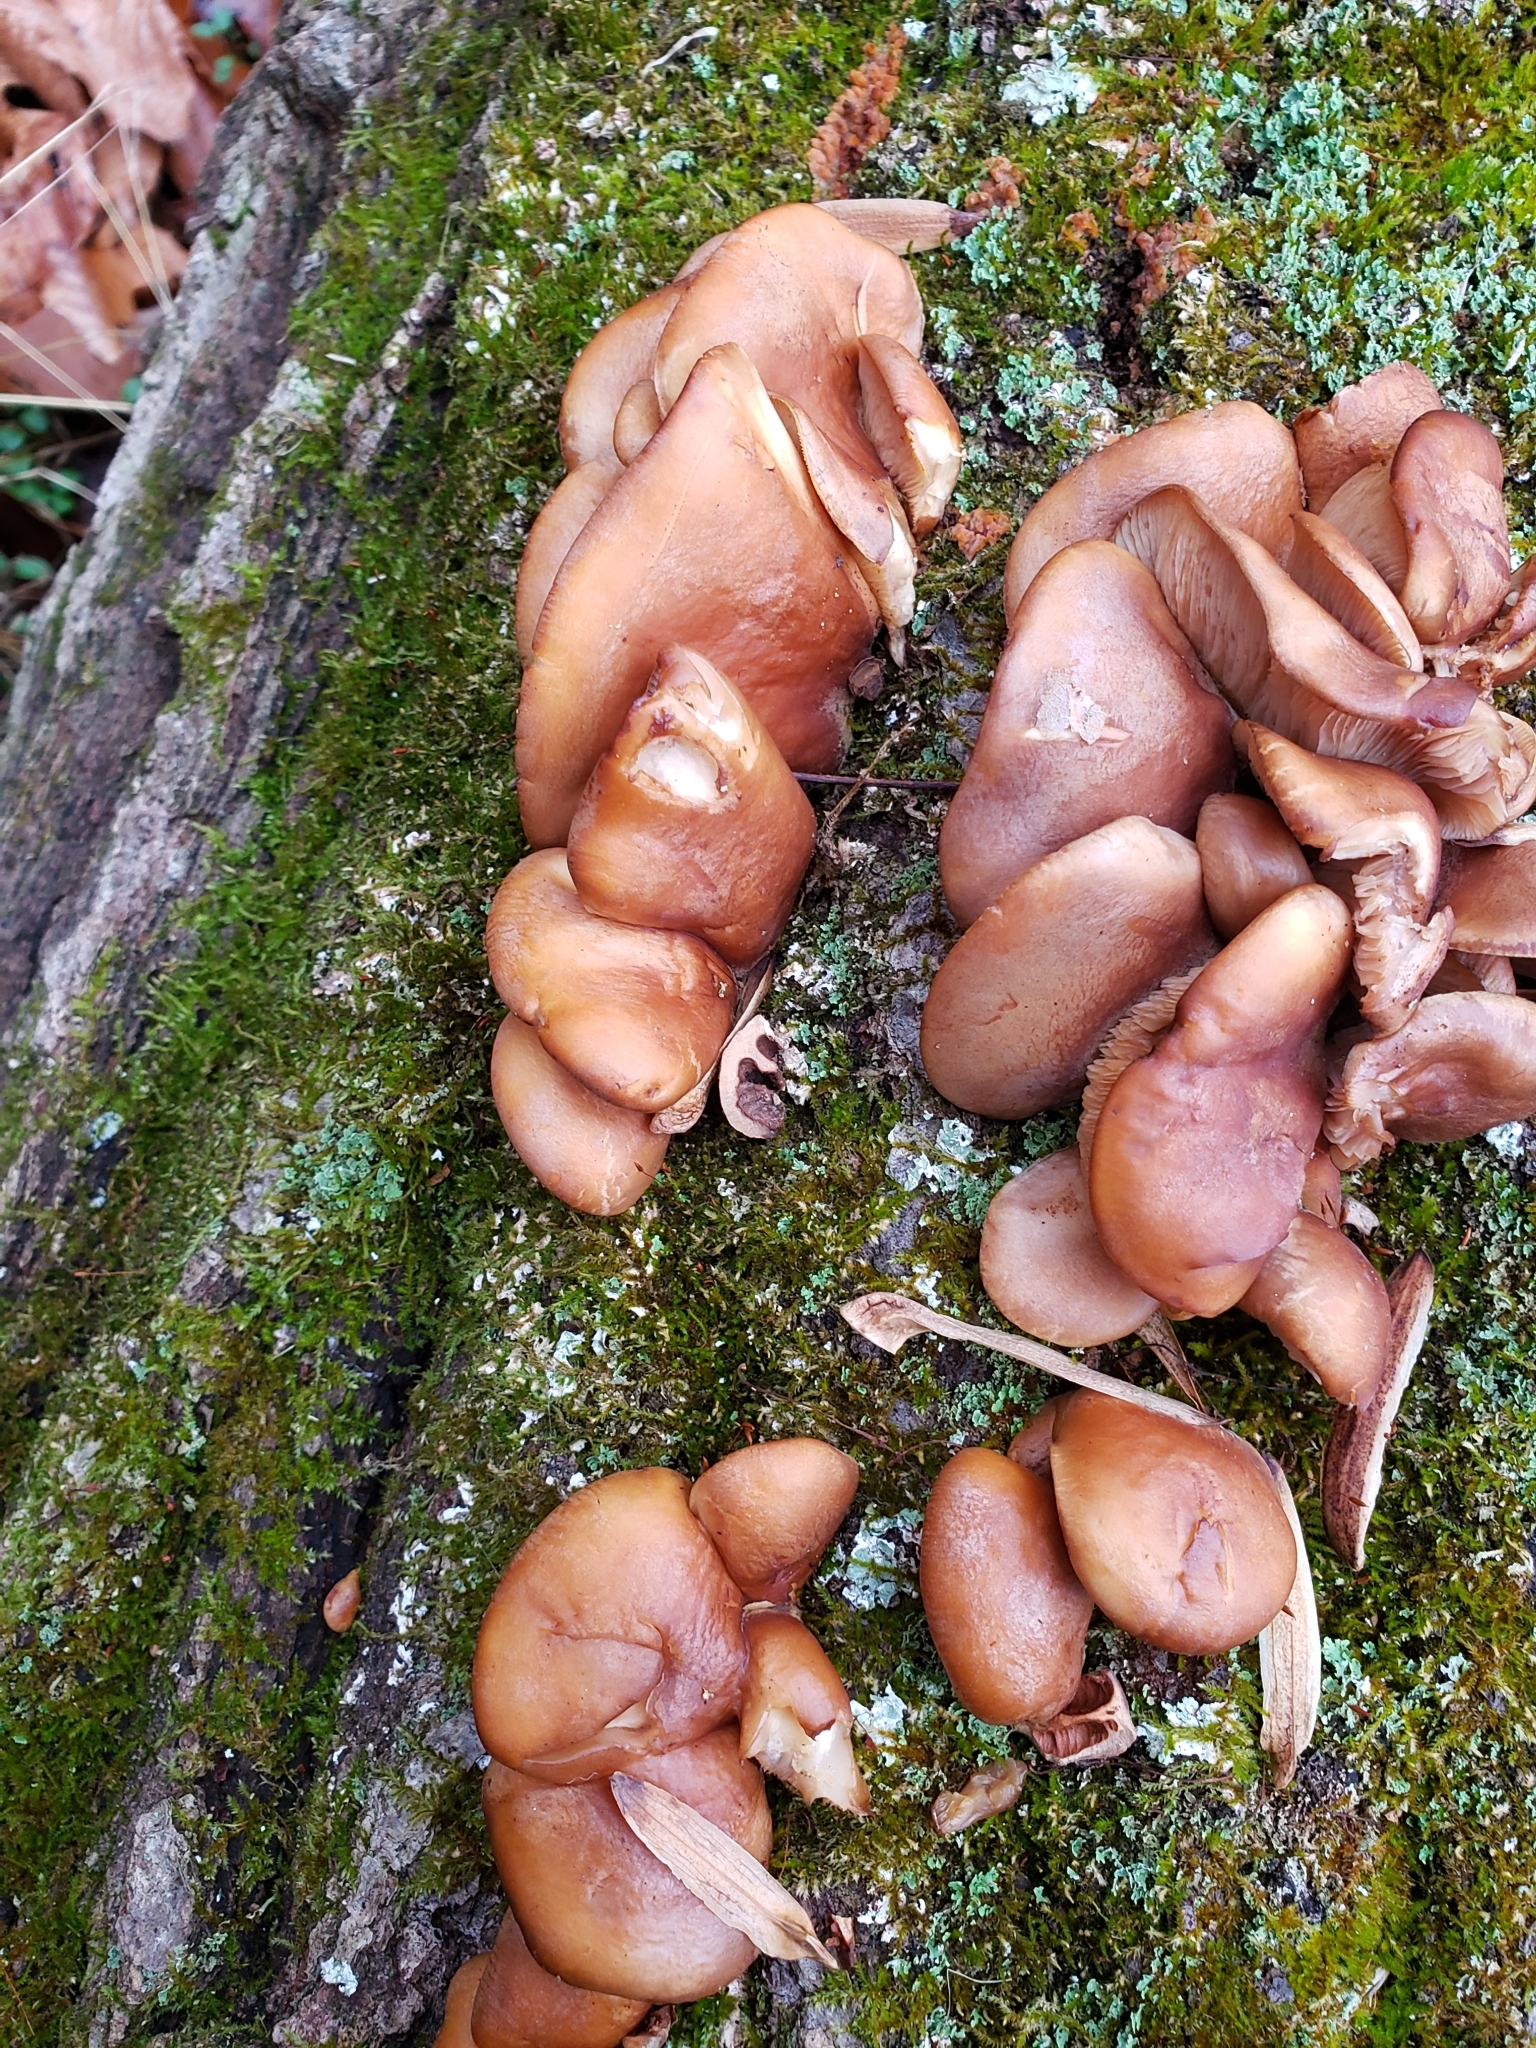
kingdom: Fungi
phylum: Basidiomycota
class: Agaricomycetes
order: Agaricales
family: Sarcomyxaceae
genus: Sarcomyxa
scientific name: Sarcomyxa serotina
